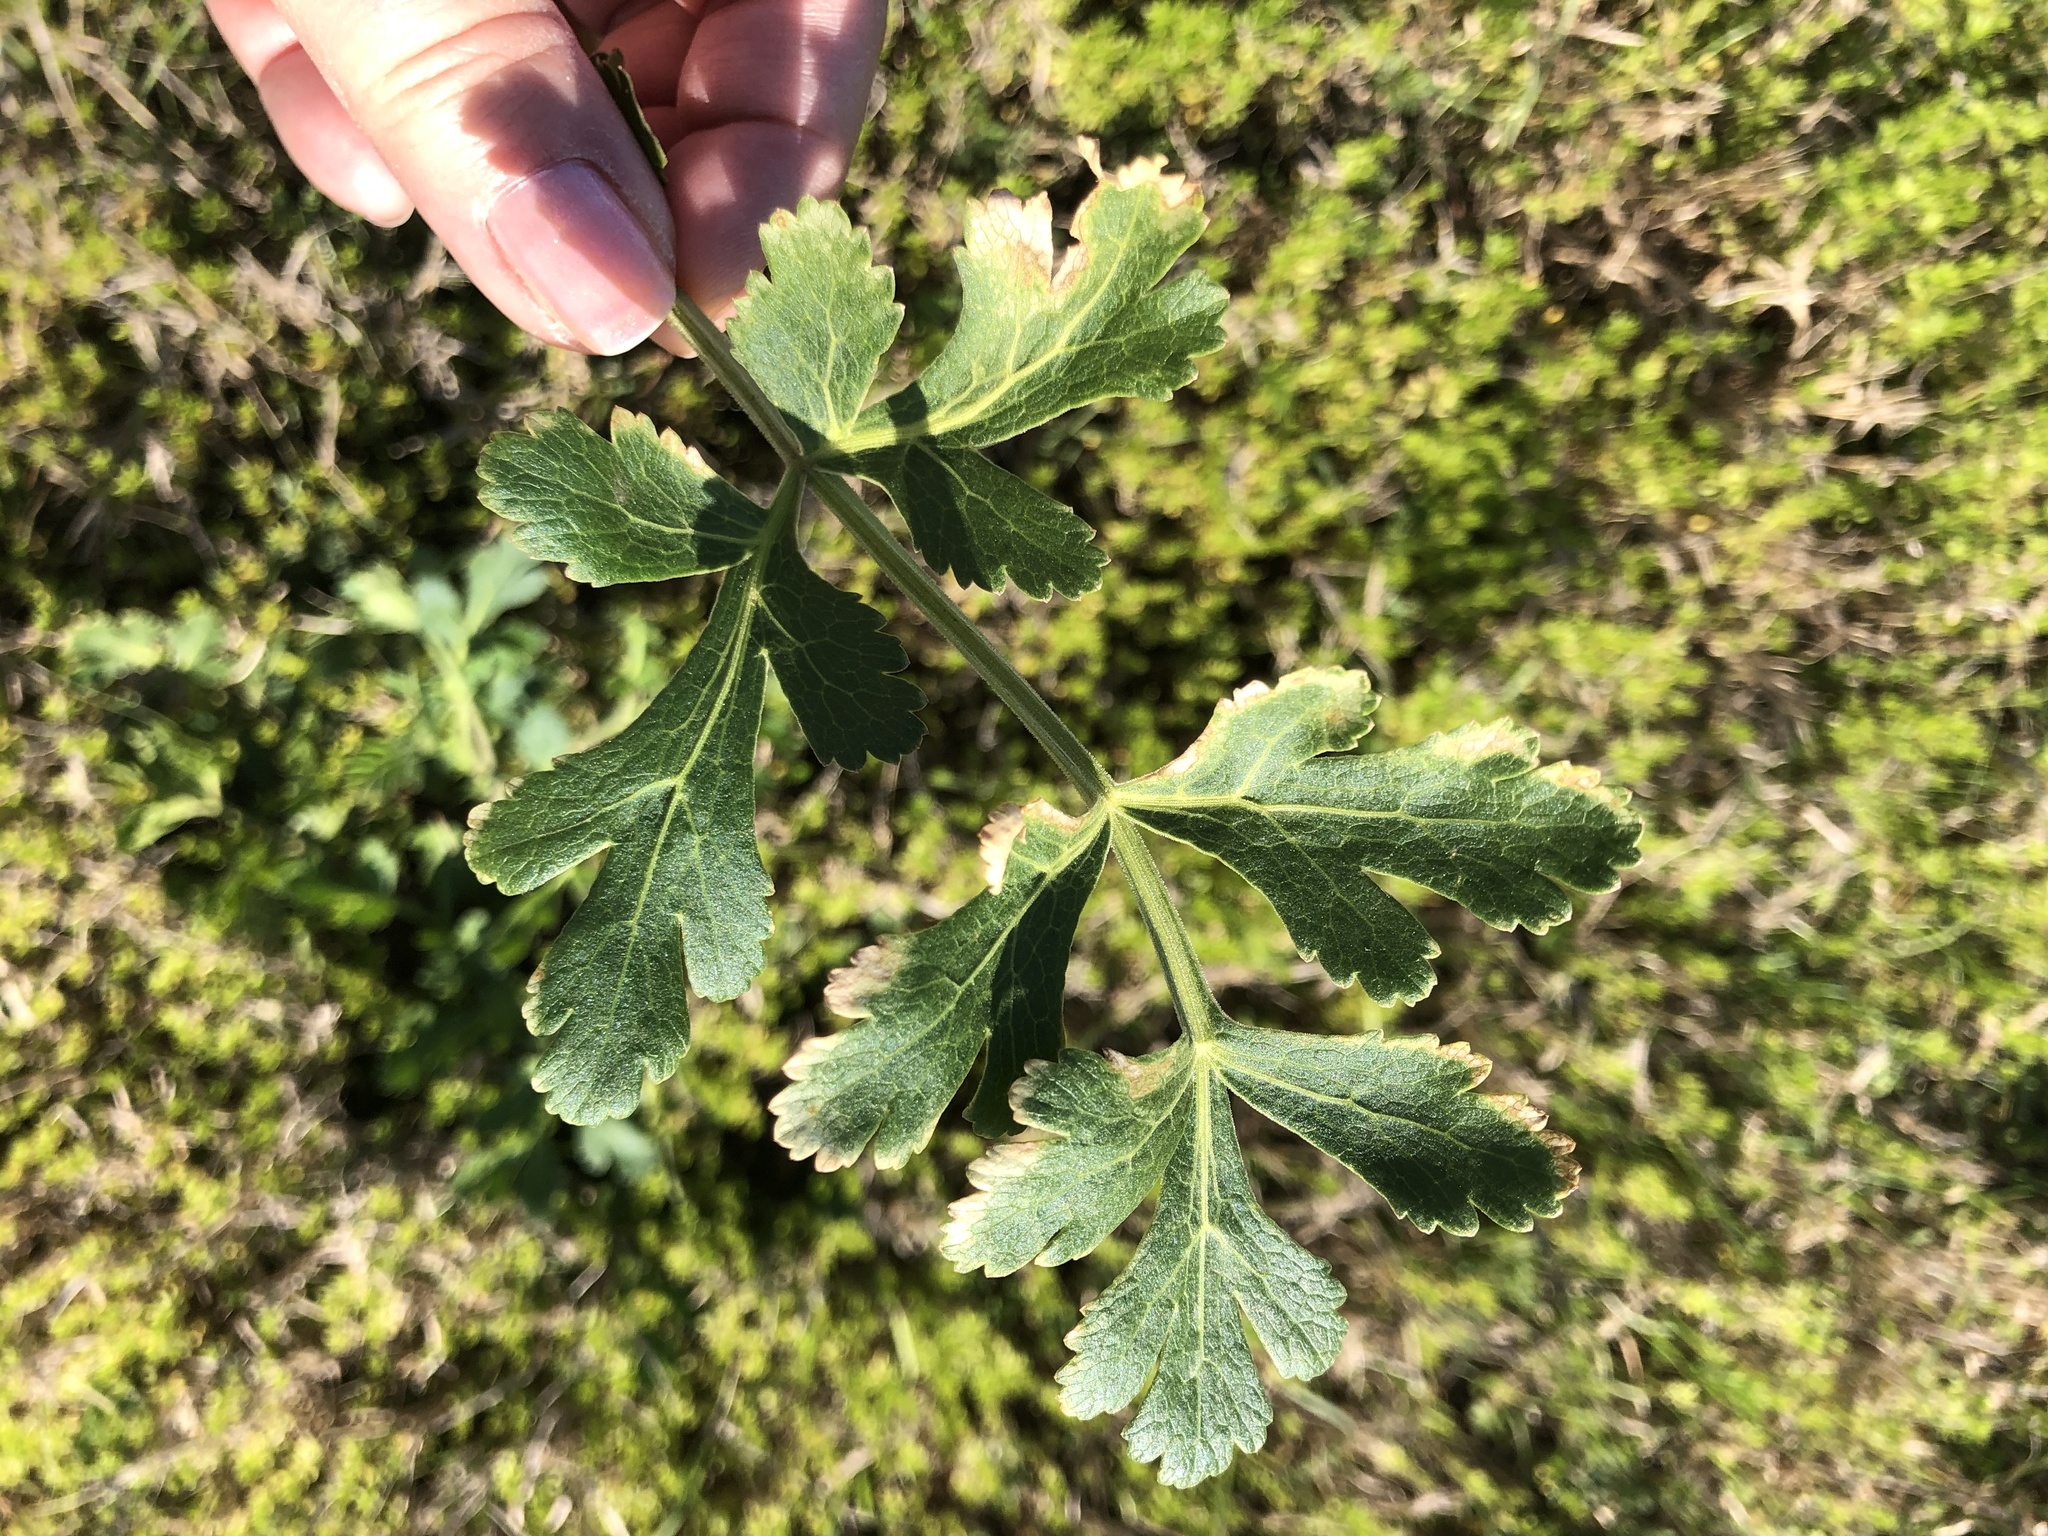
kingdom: Plantae
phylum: Tracheophyta
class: Magnoliopsida
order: Apiales
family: Apiaceae
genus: Polytaenia
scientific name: Polytaenia texana
